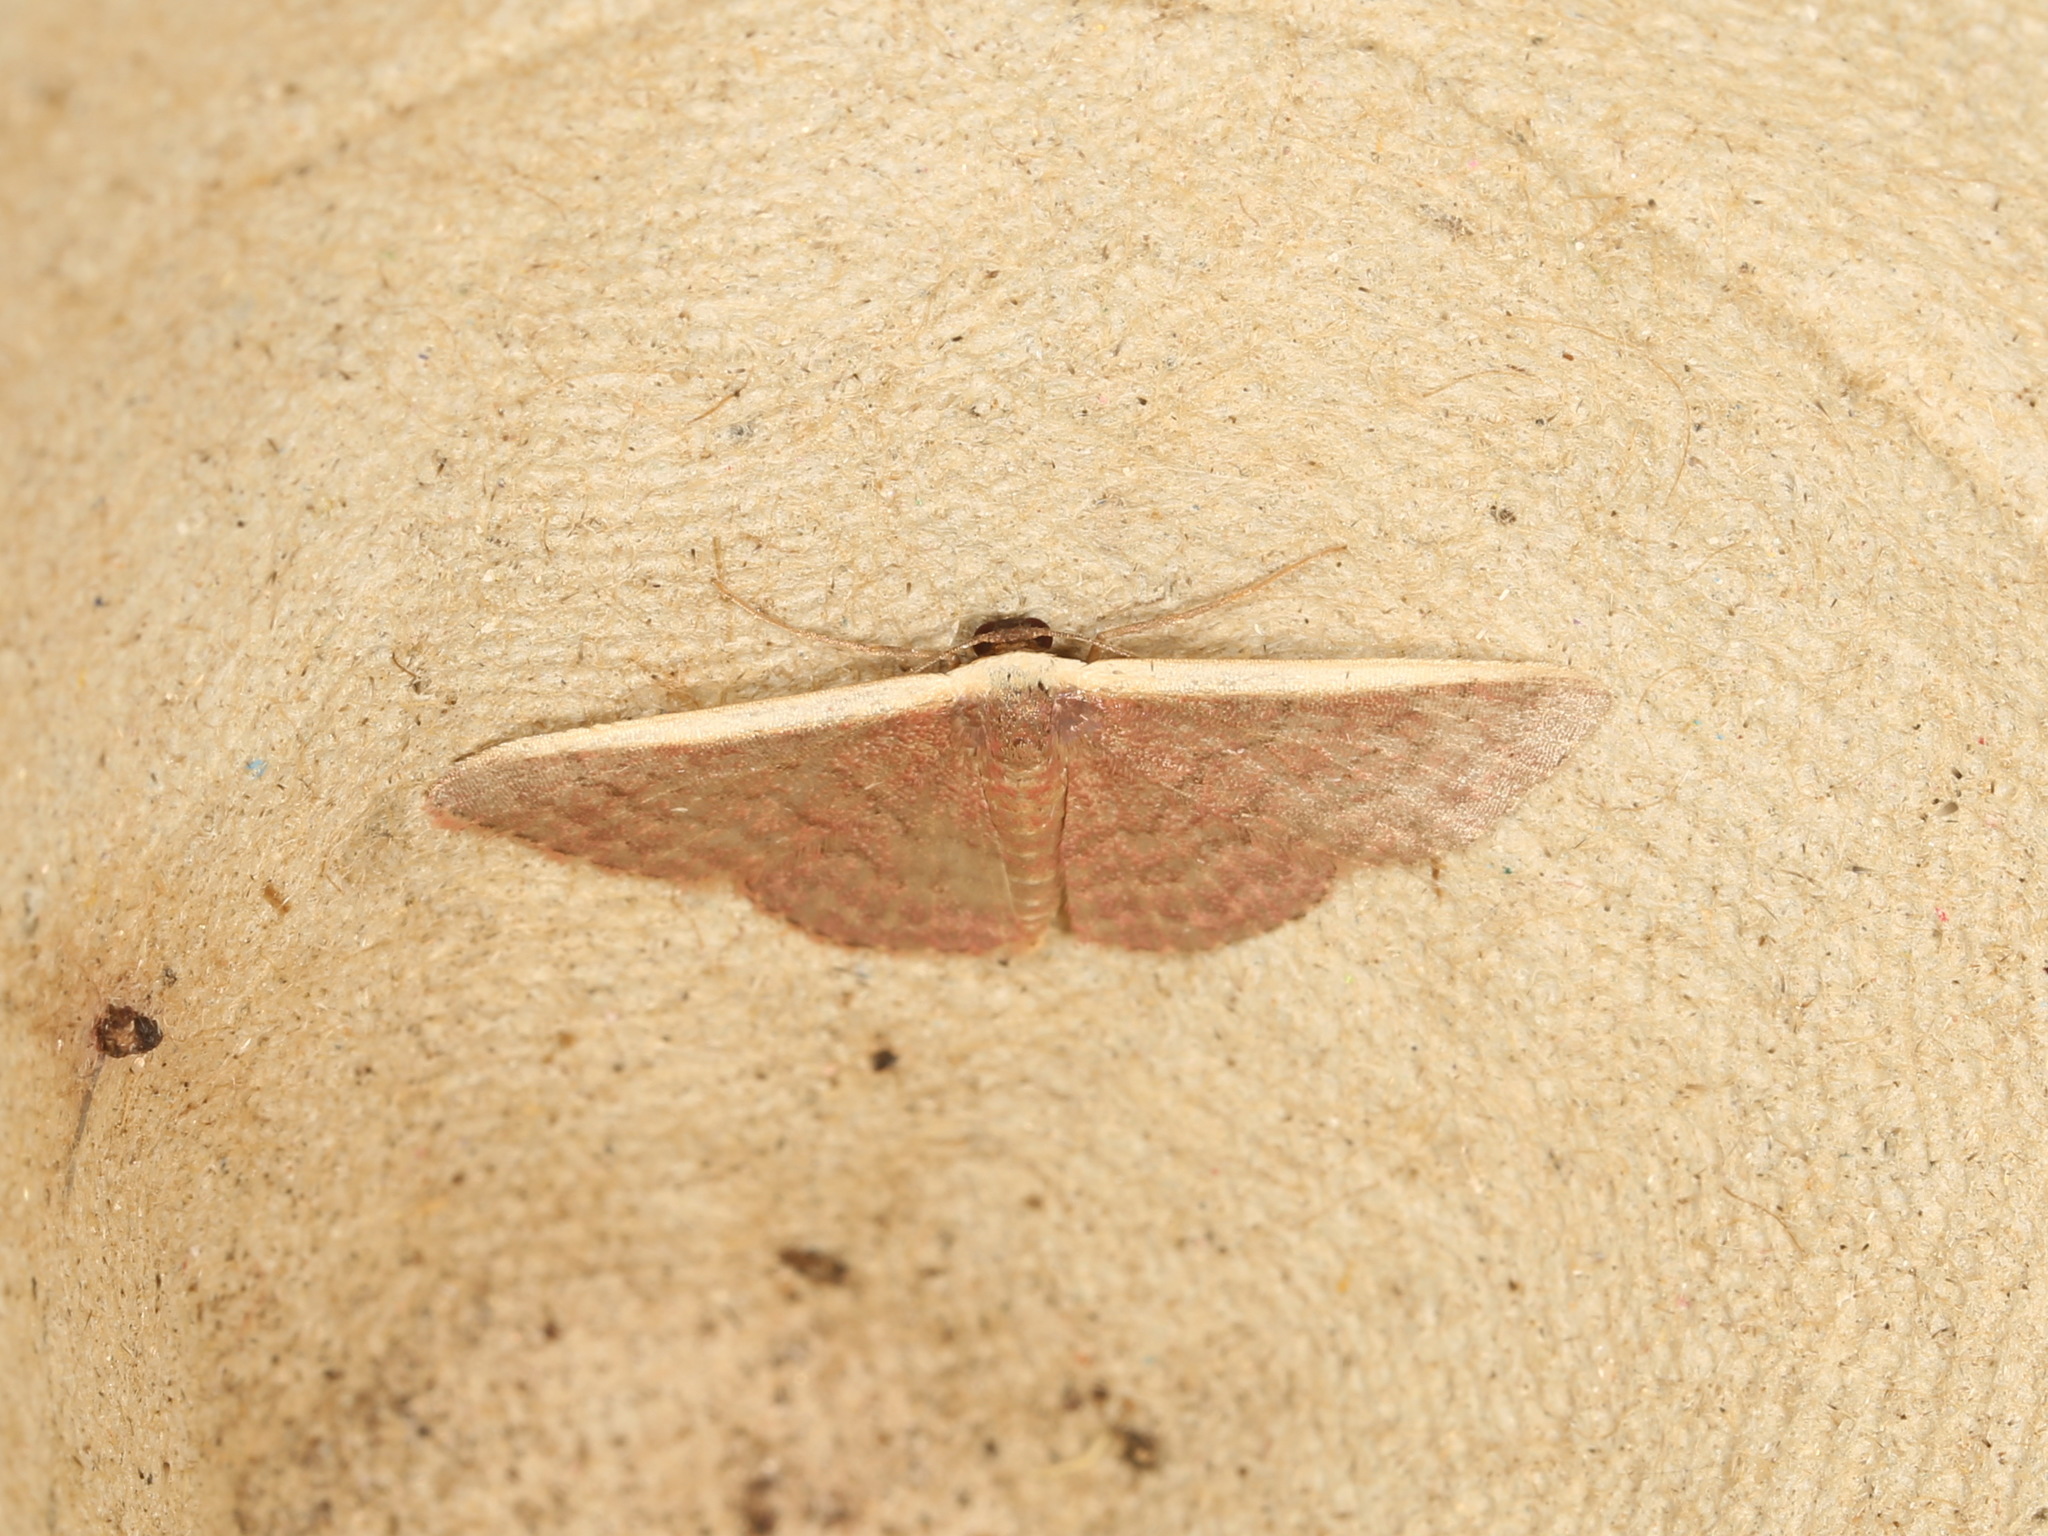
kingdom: Animalia
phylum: Arthropoda
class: Insecta
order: Lepidoptera
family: Geometridae
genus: Idaea
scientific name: Idaea inversata
